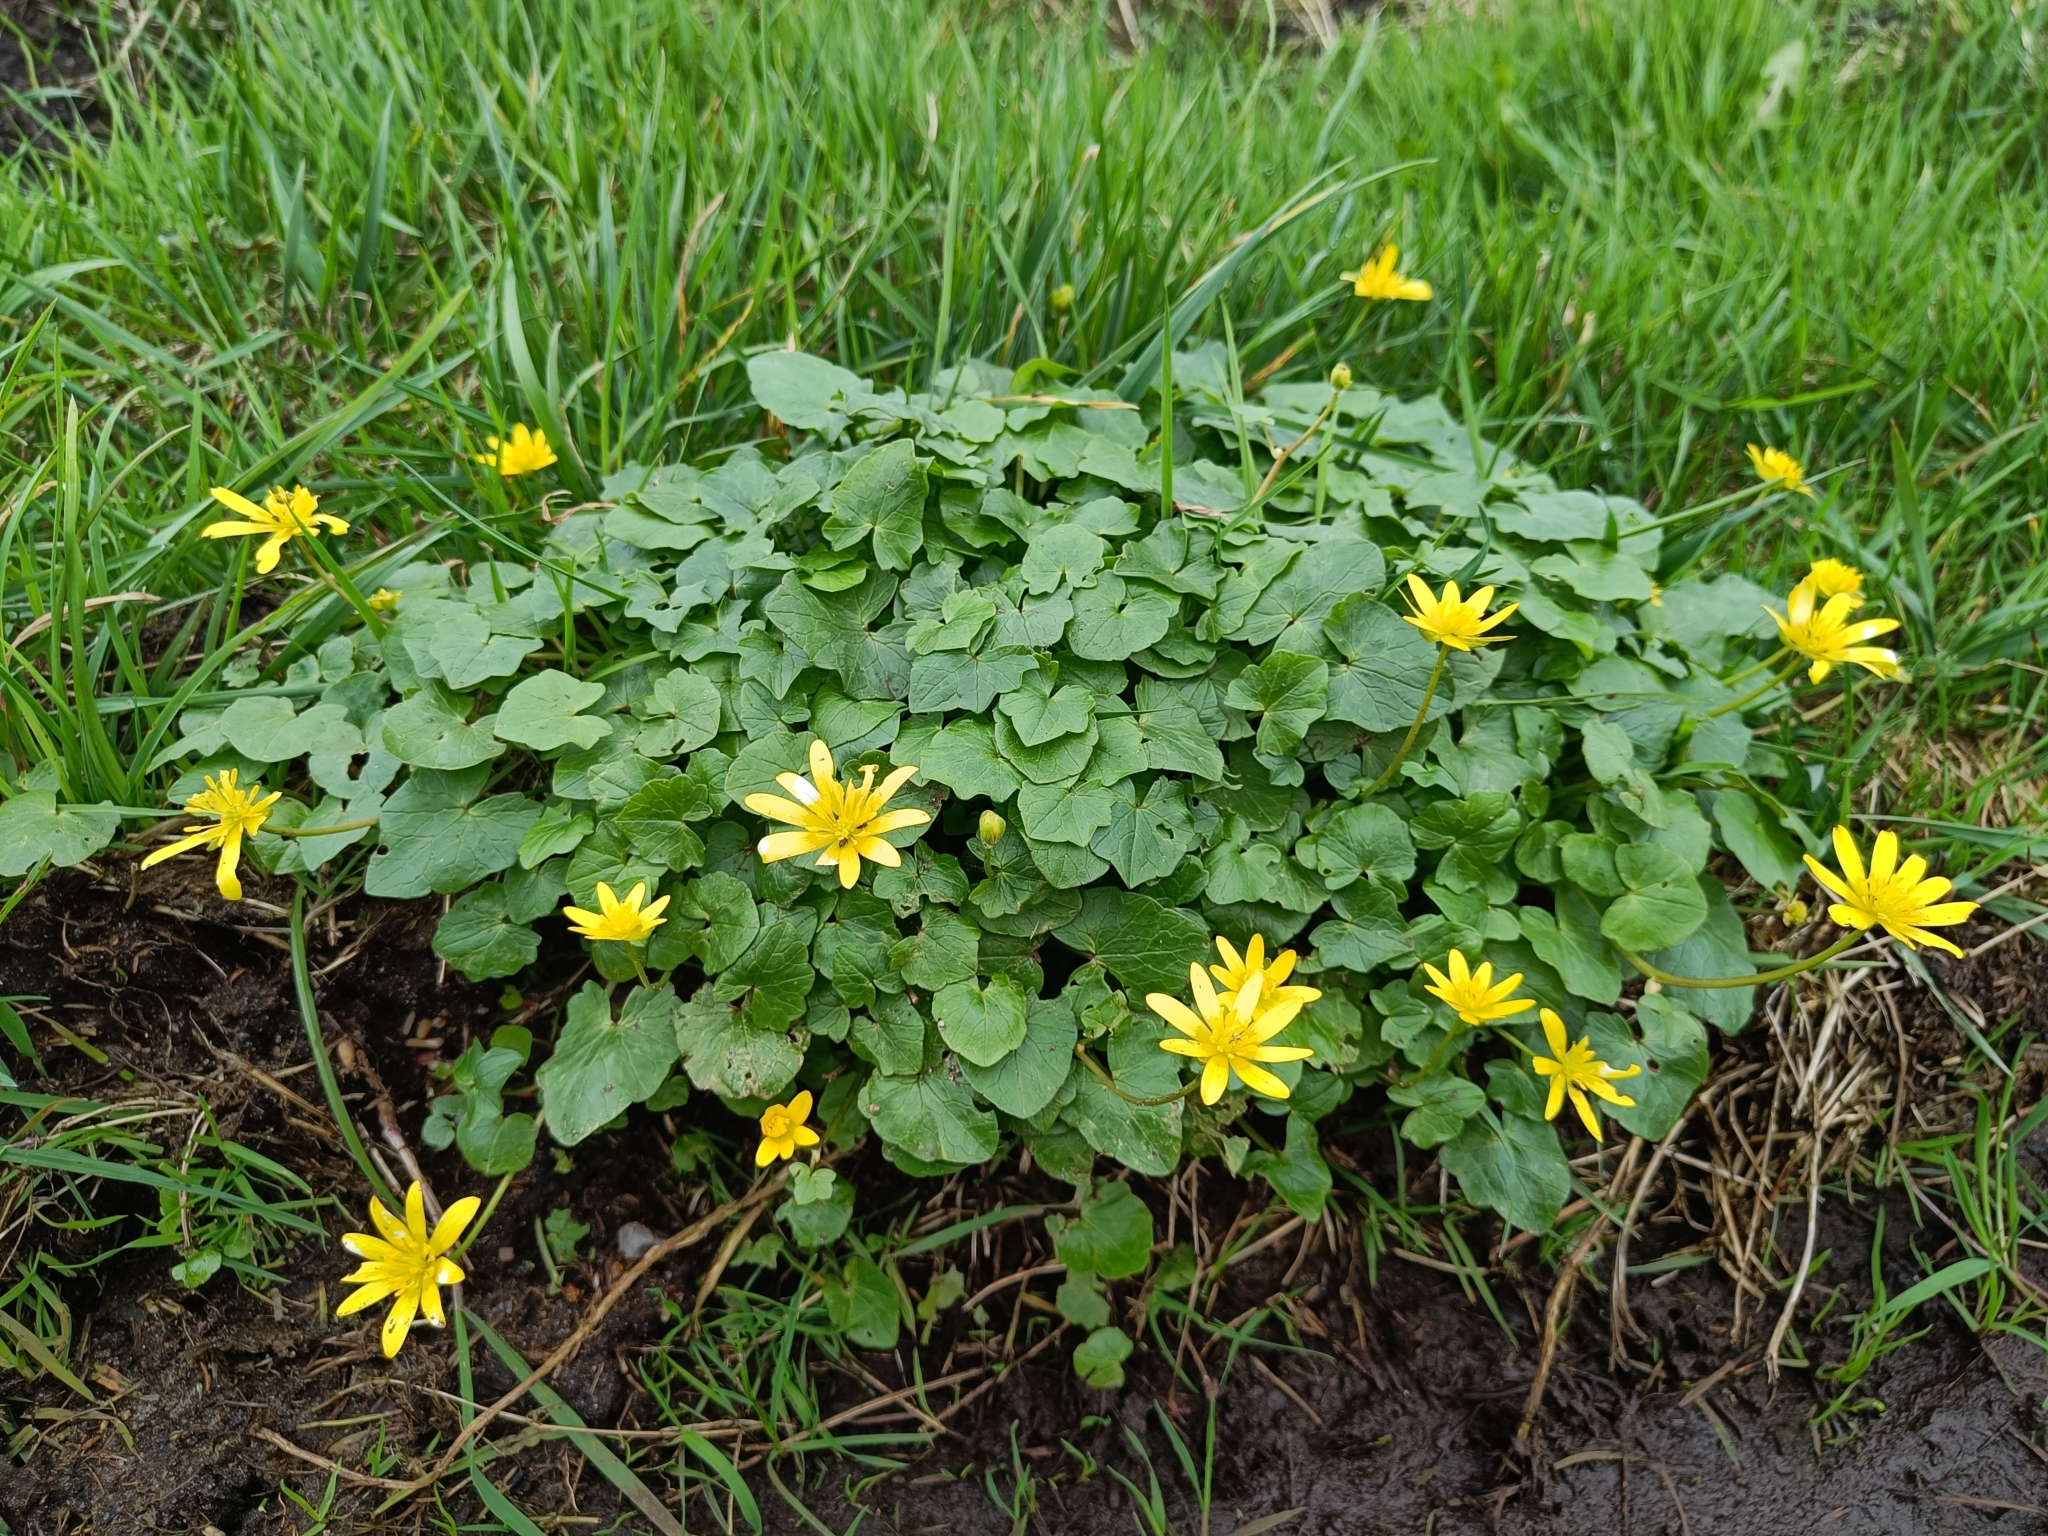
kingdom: Plantae
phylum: Tracheophyta
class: Magnoliopsida
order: Ranunculales
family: Ranunculaceae
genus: Ficaria
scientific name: Ficaria verna
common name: Lesser celandine
